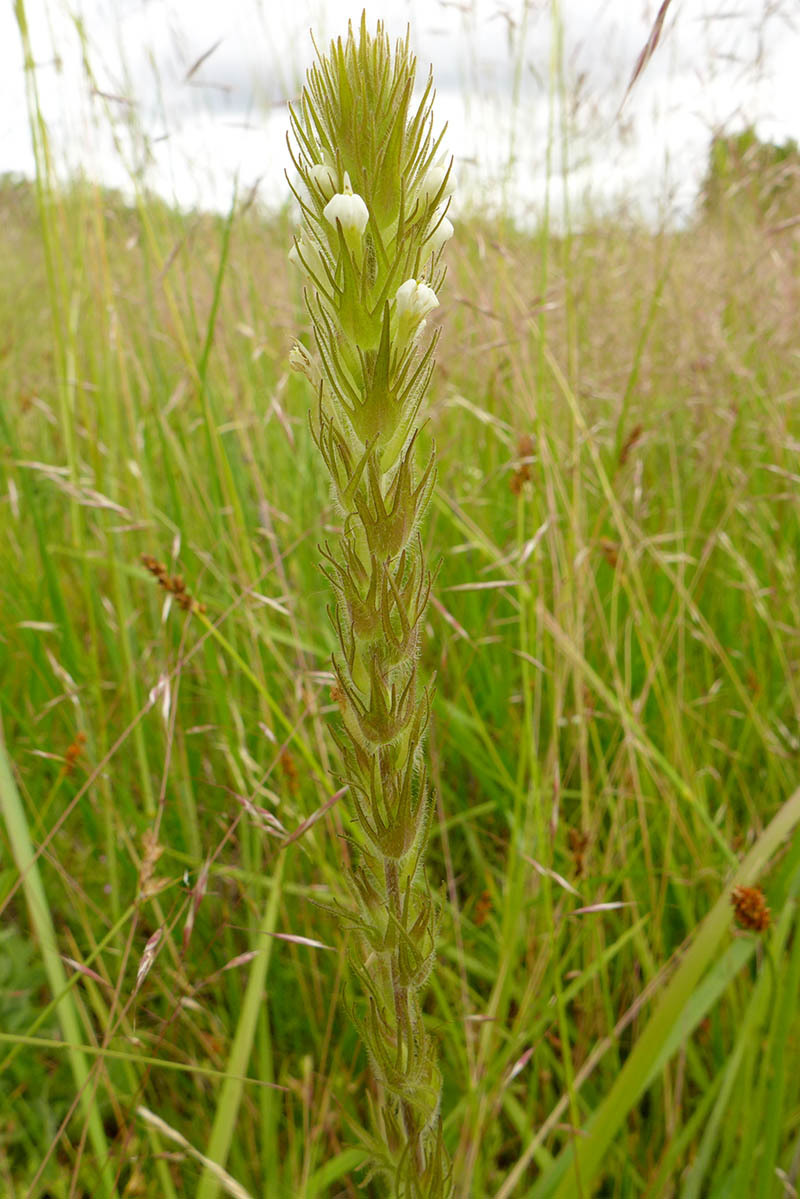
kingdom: Plantae
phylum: Tracheophyta
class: Magnoliopsida
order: Lamiales
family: Orobanchaceae
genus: Castilleja
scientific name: Castilleja tenuis
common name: Hairy indian paintbrush
